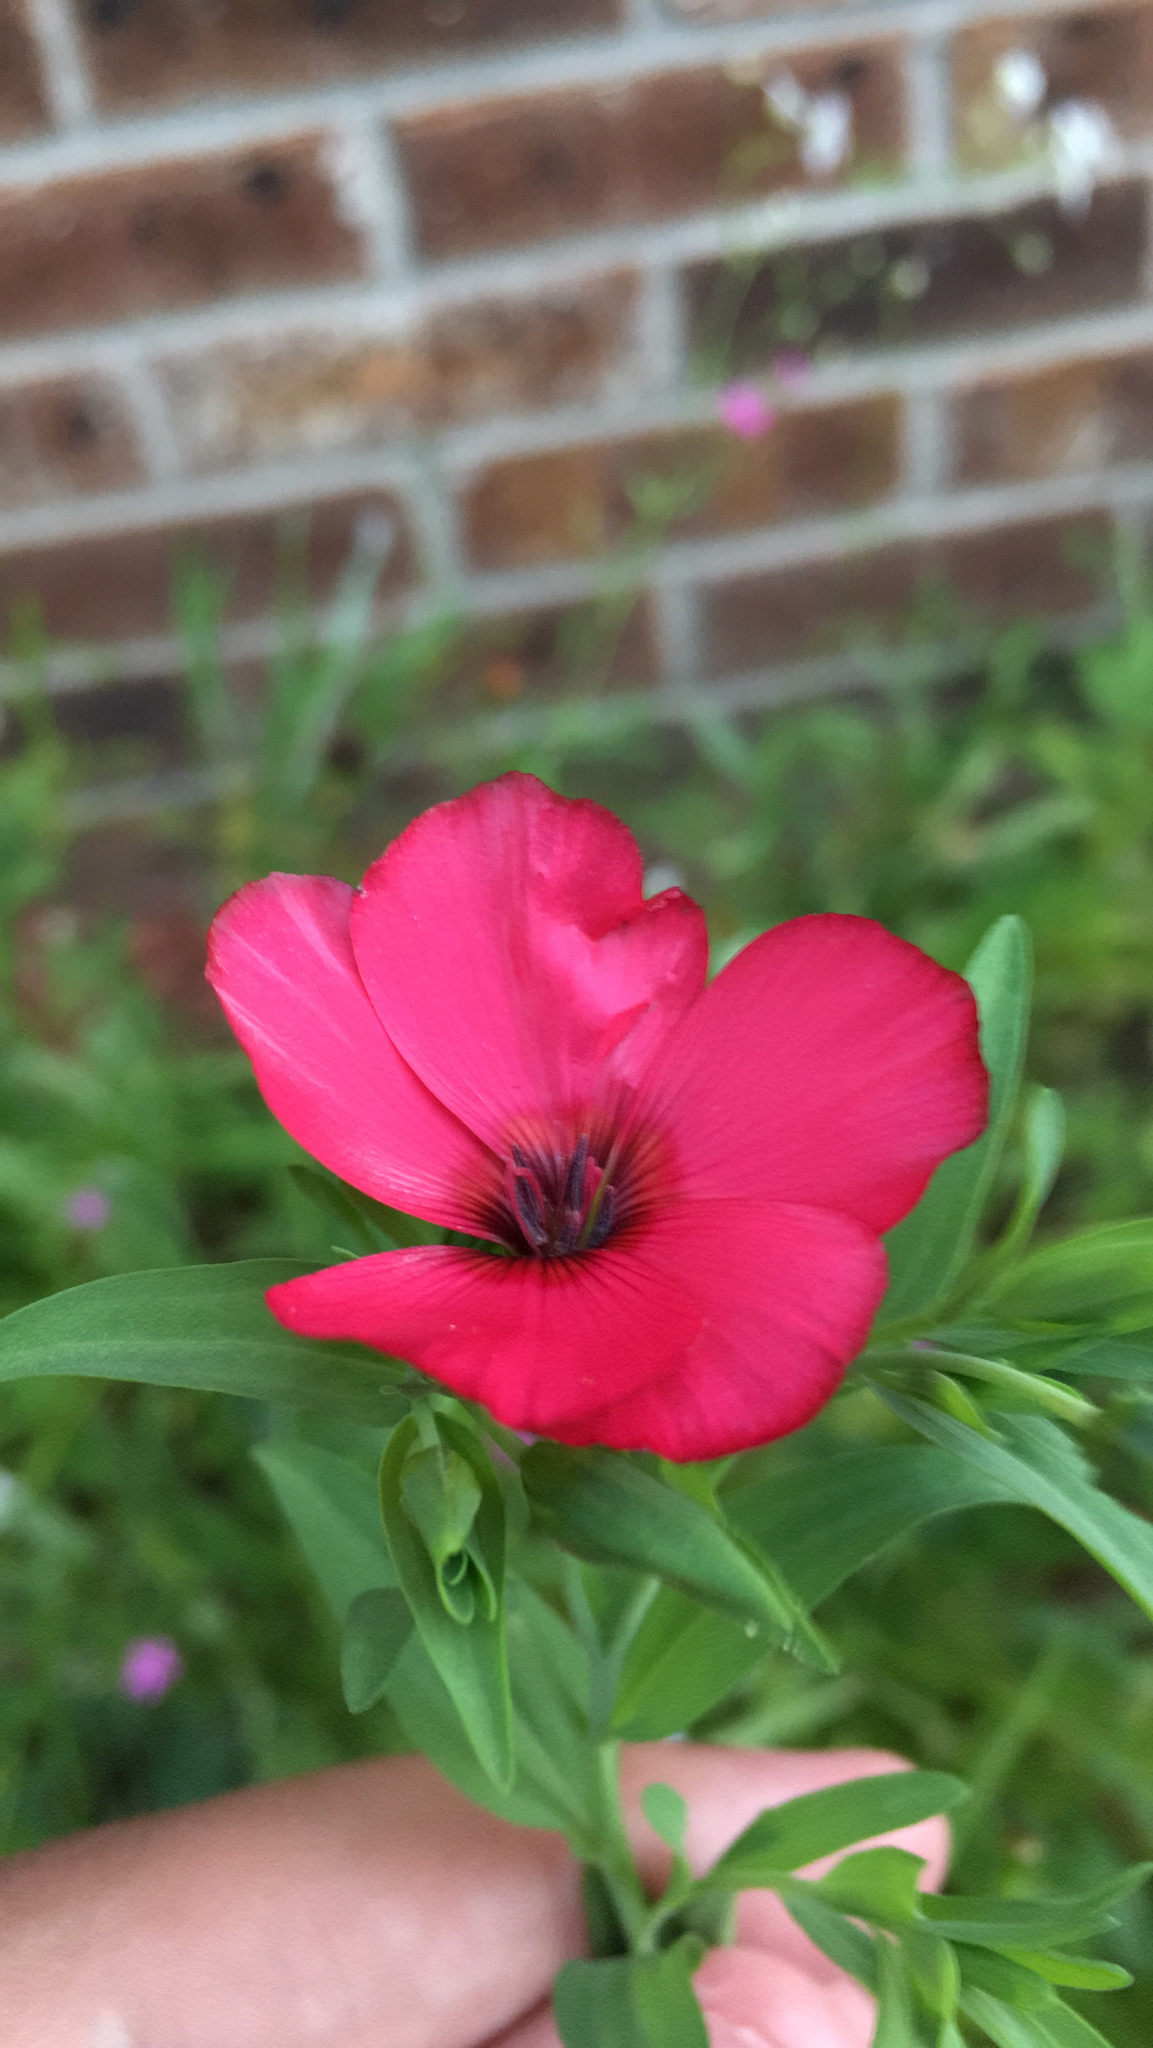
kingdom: Plantae
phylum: Tracheophyta
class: Magnoliopsida
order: Malpighiales
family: Linaceae
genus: Linum
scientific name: Linum grandiflorum
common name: Crimson flax
